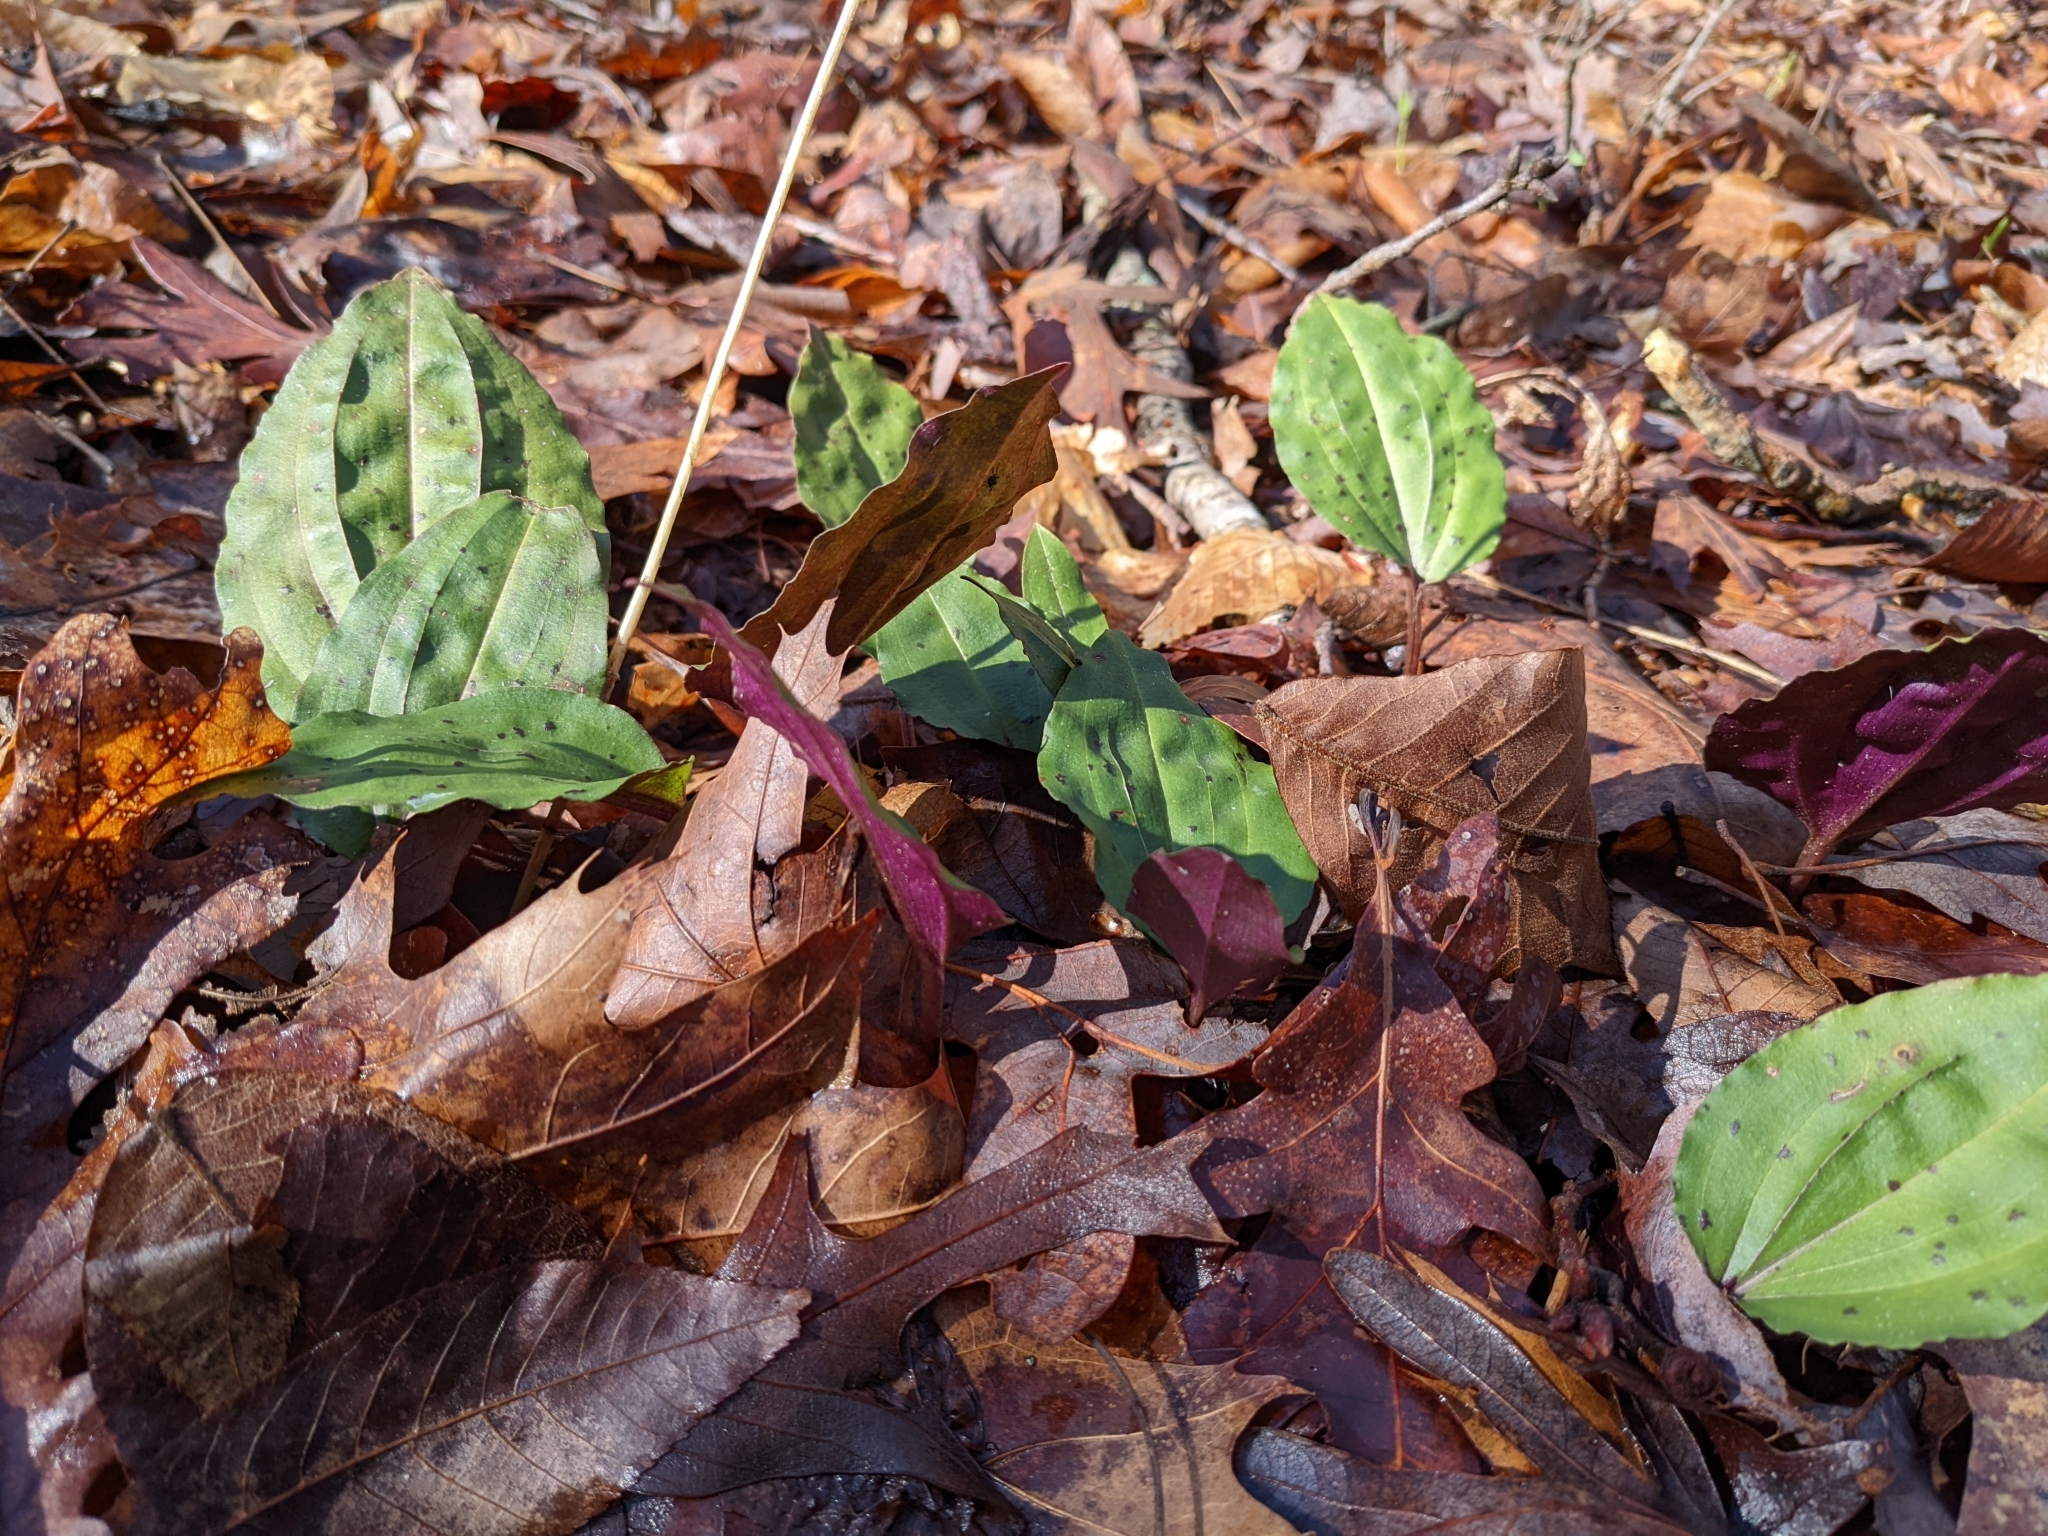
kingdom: Plantae
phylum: Tracheophyta
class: Liliopsida
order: Asparagales
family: Orchidaceae
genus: Tipularia
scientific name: Tipularia discolor
